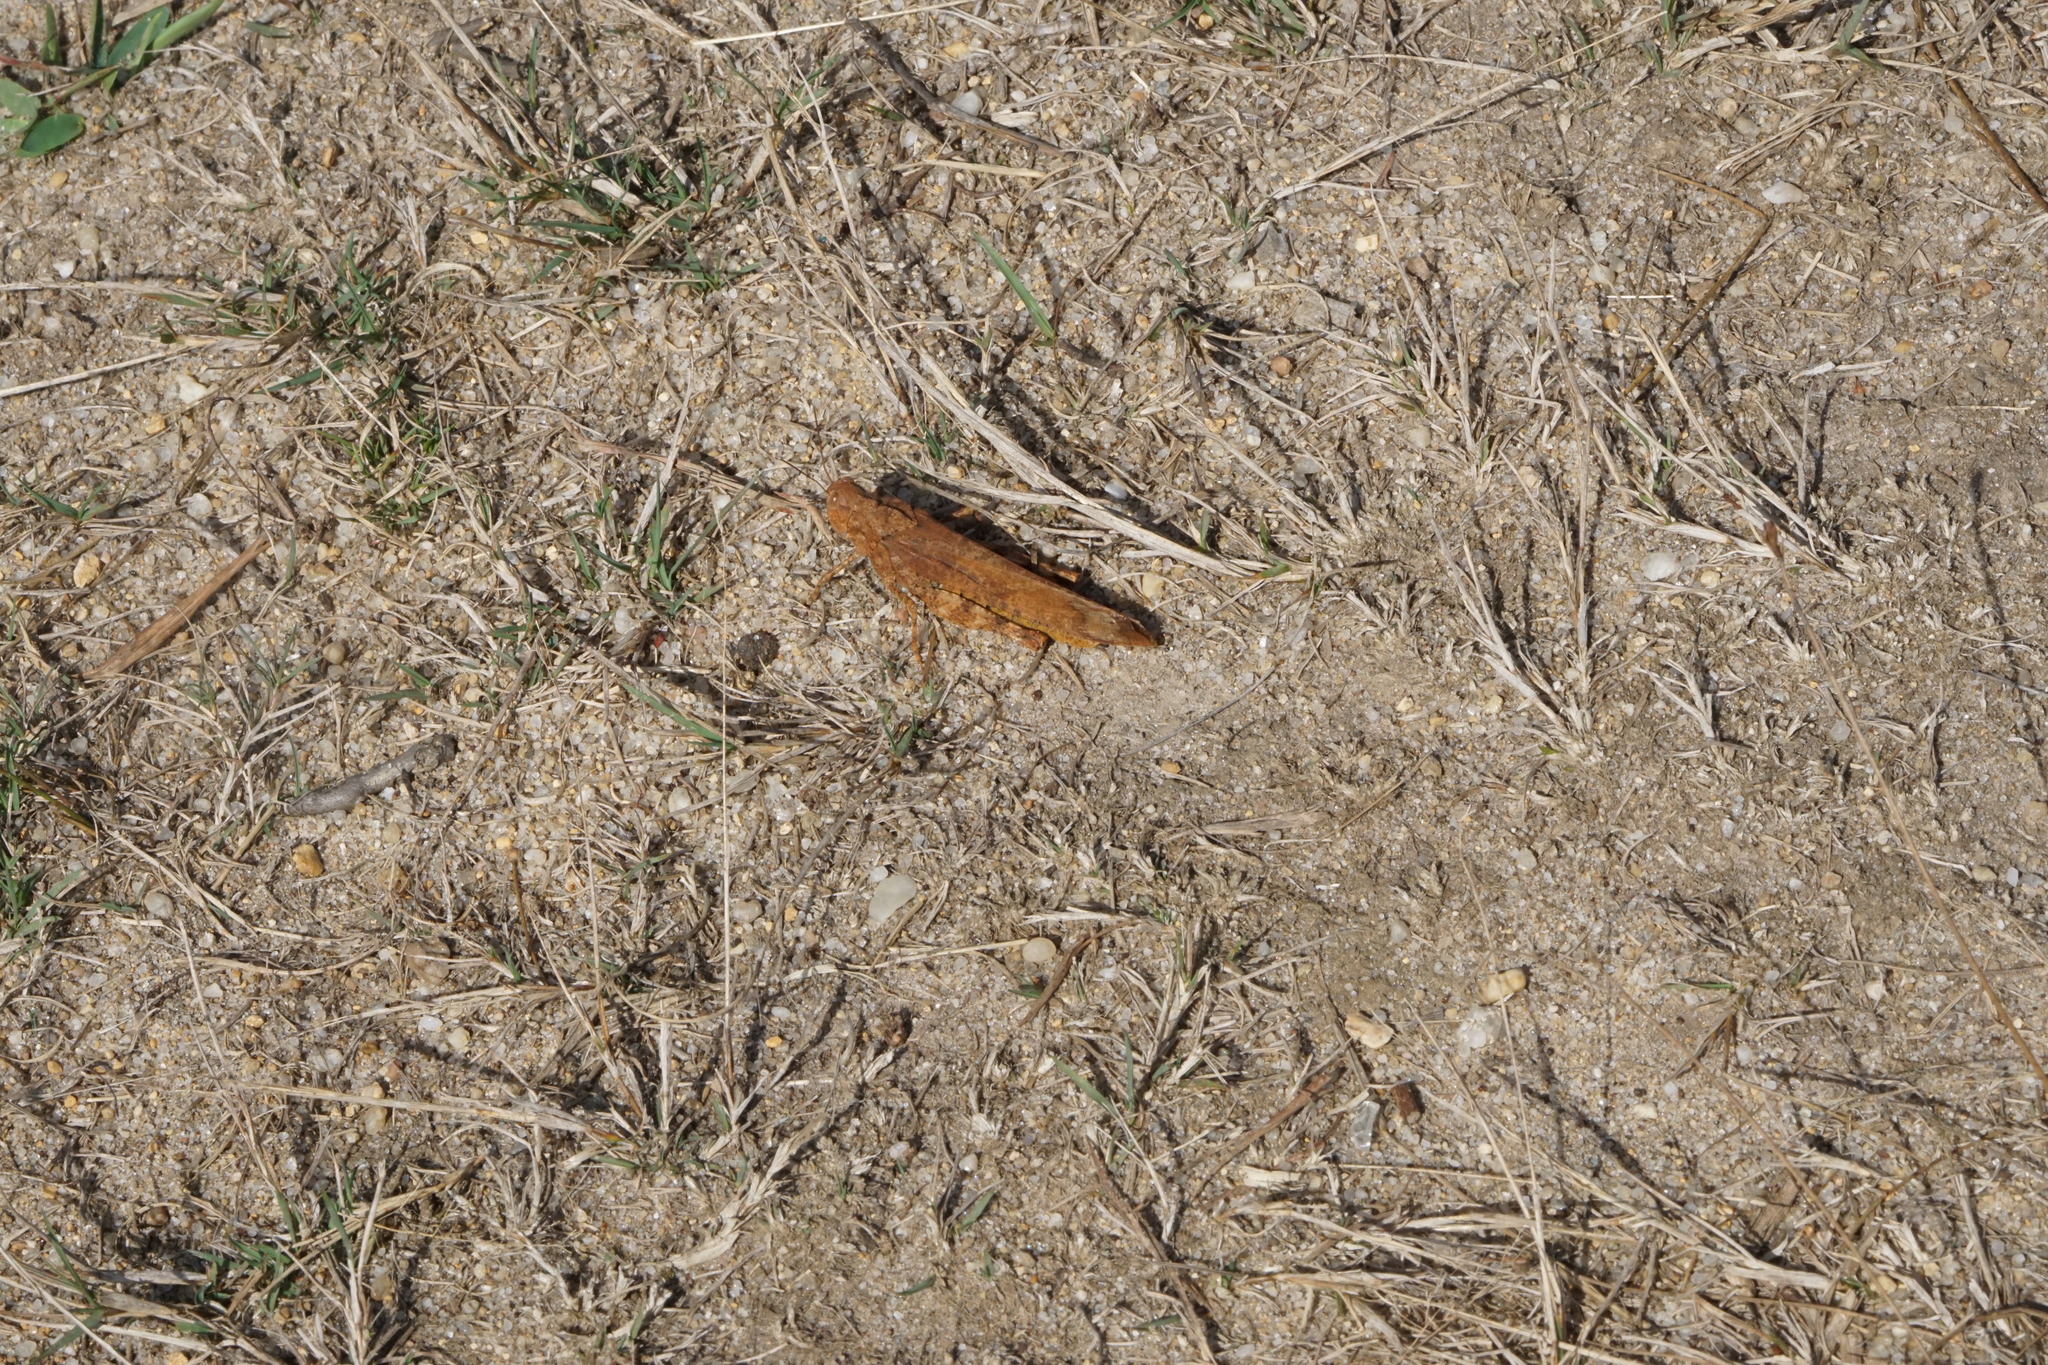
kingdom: Animalia
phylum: Arthropoda
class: Insecta
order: Orthoptera
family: Acrididae
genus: Dissosteira
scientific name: Dissosteira carolina
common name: Carolina grasshopper
